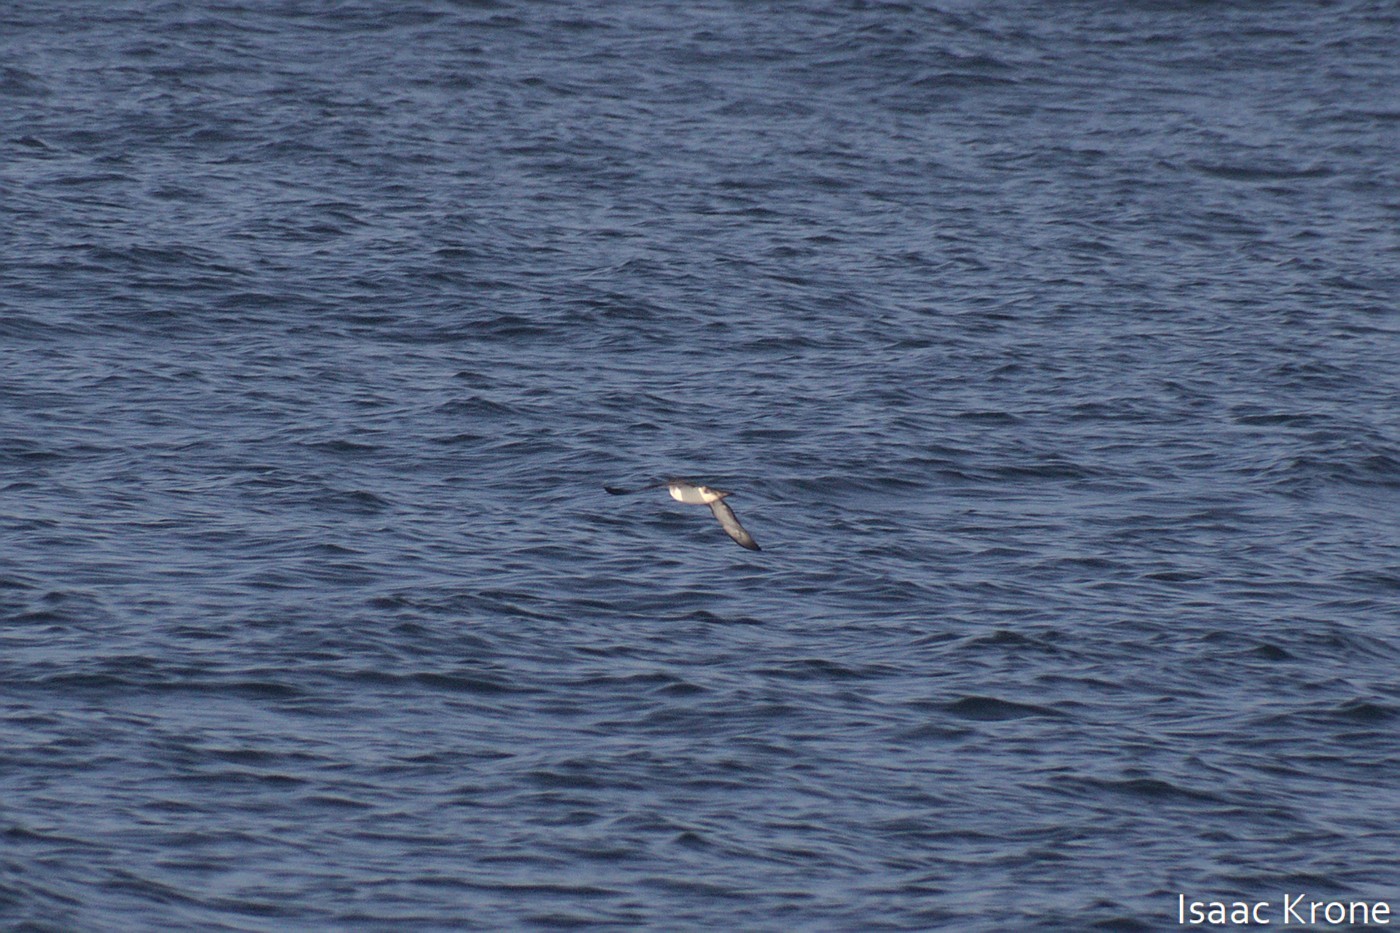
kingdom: Animalia
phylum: Chordata
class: Aves
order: Procellariiformes
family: Procellariidae
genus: Puffinus
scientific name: Puffinus opisthomelas
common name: Black-vented shearwater
